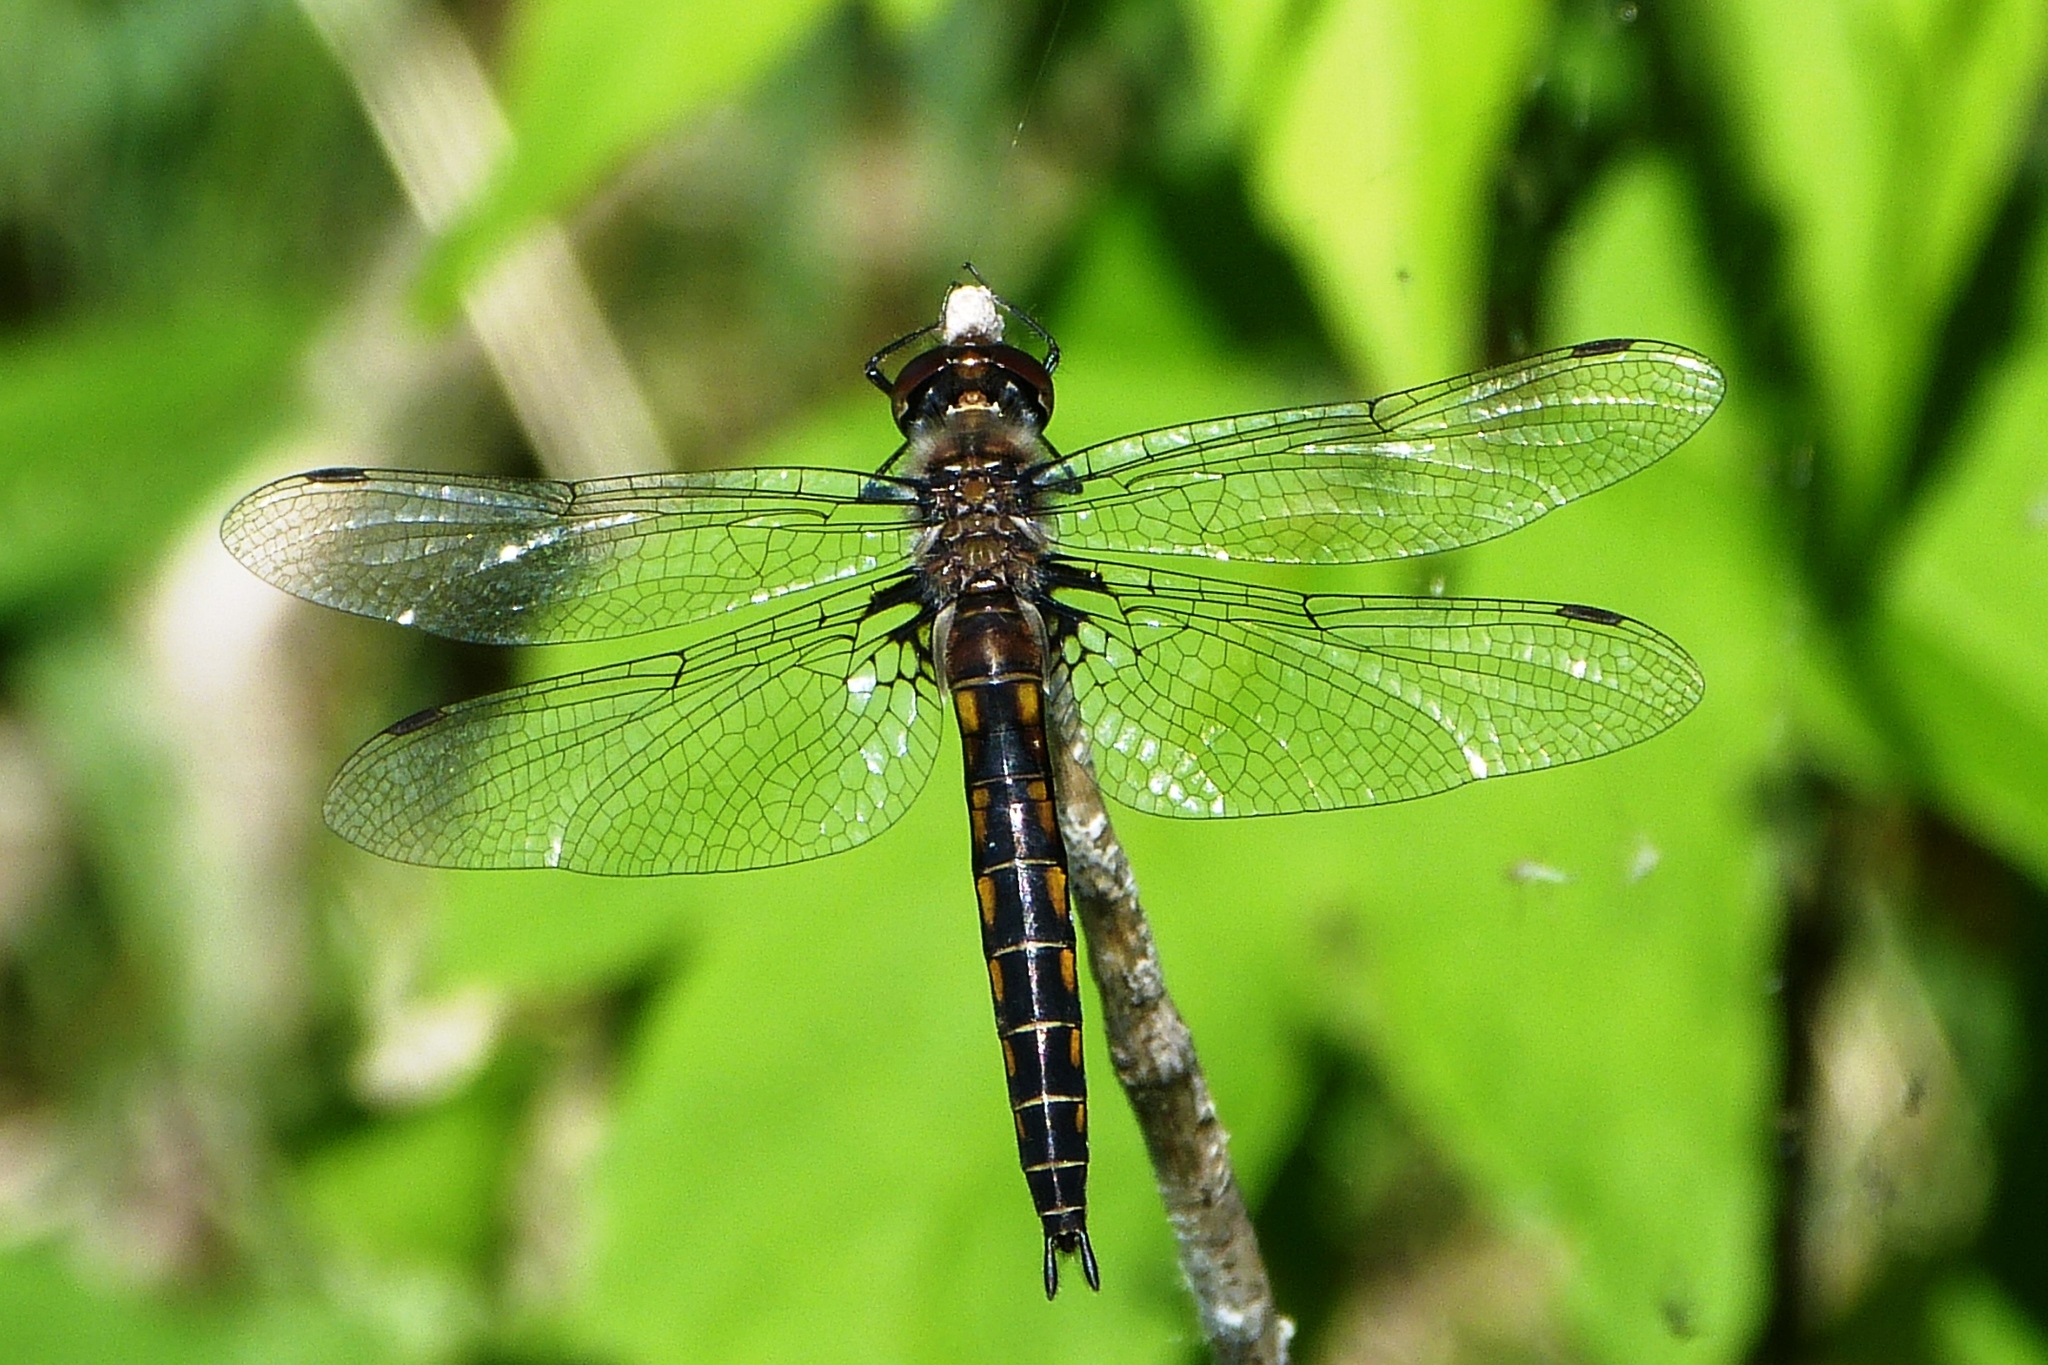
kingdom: Animalia
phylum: Arthropoda
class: Insecta
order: Odonata
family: Corduliidae
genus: Epitheca
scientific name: Epitheca spinigera
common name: Spiny baskettail
